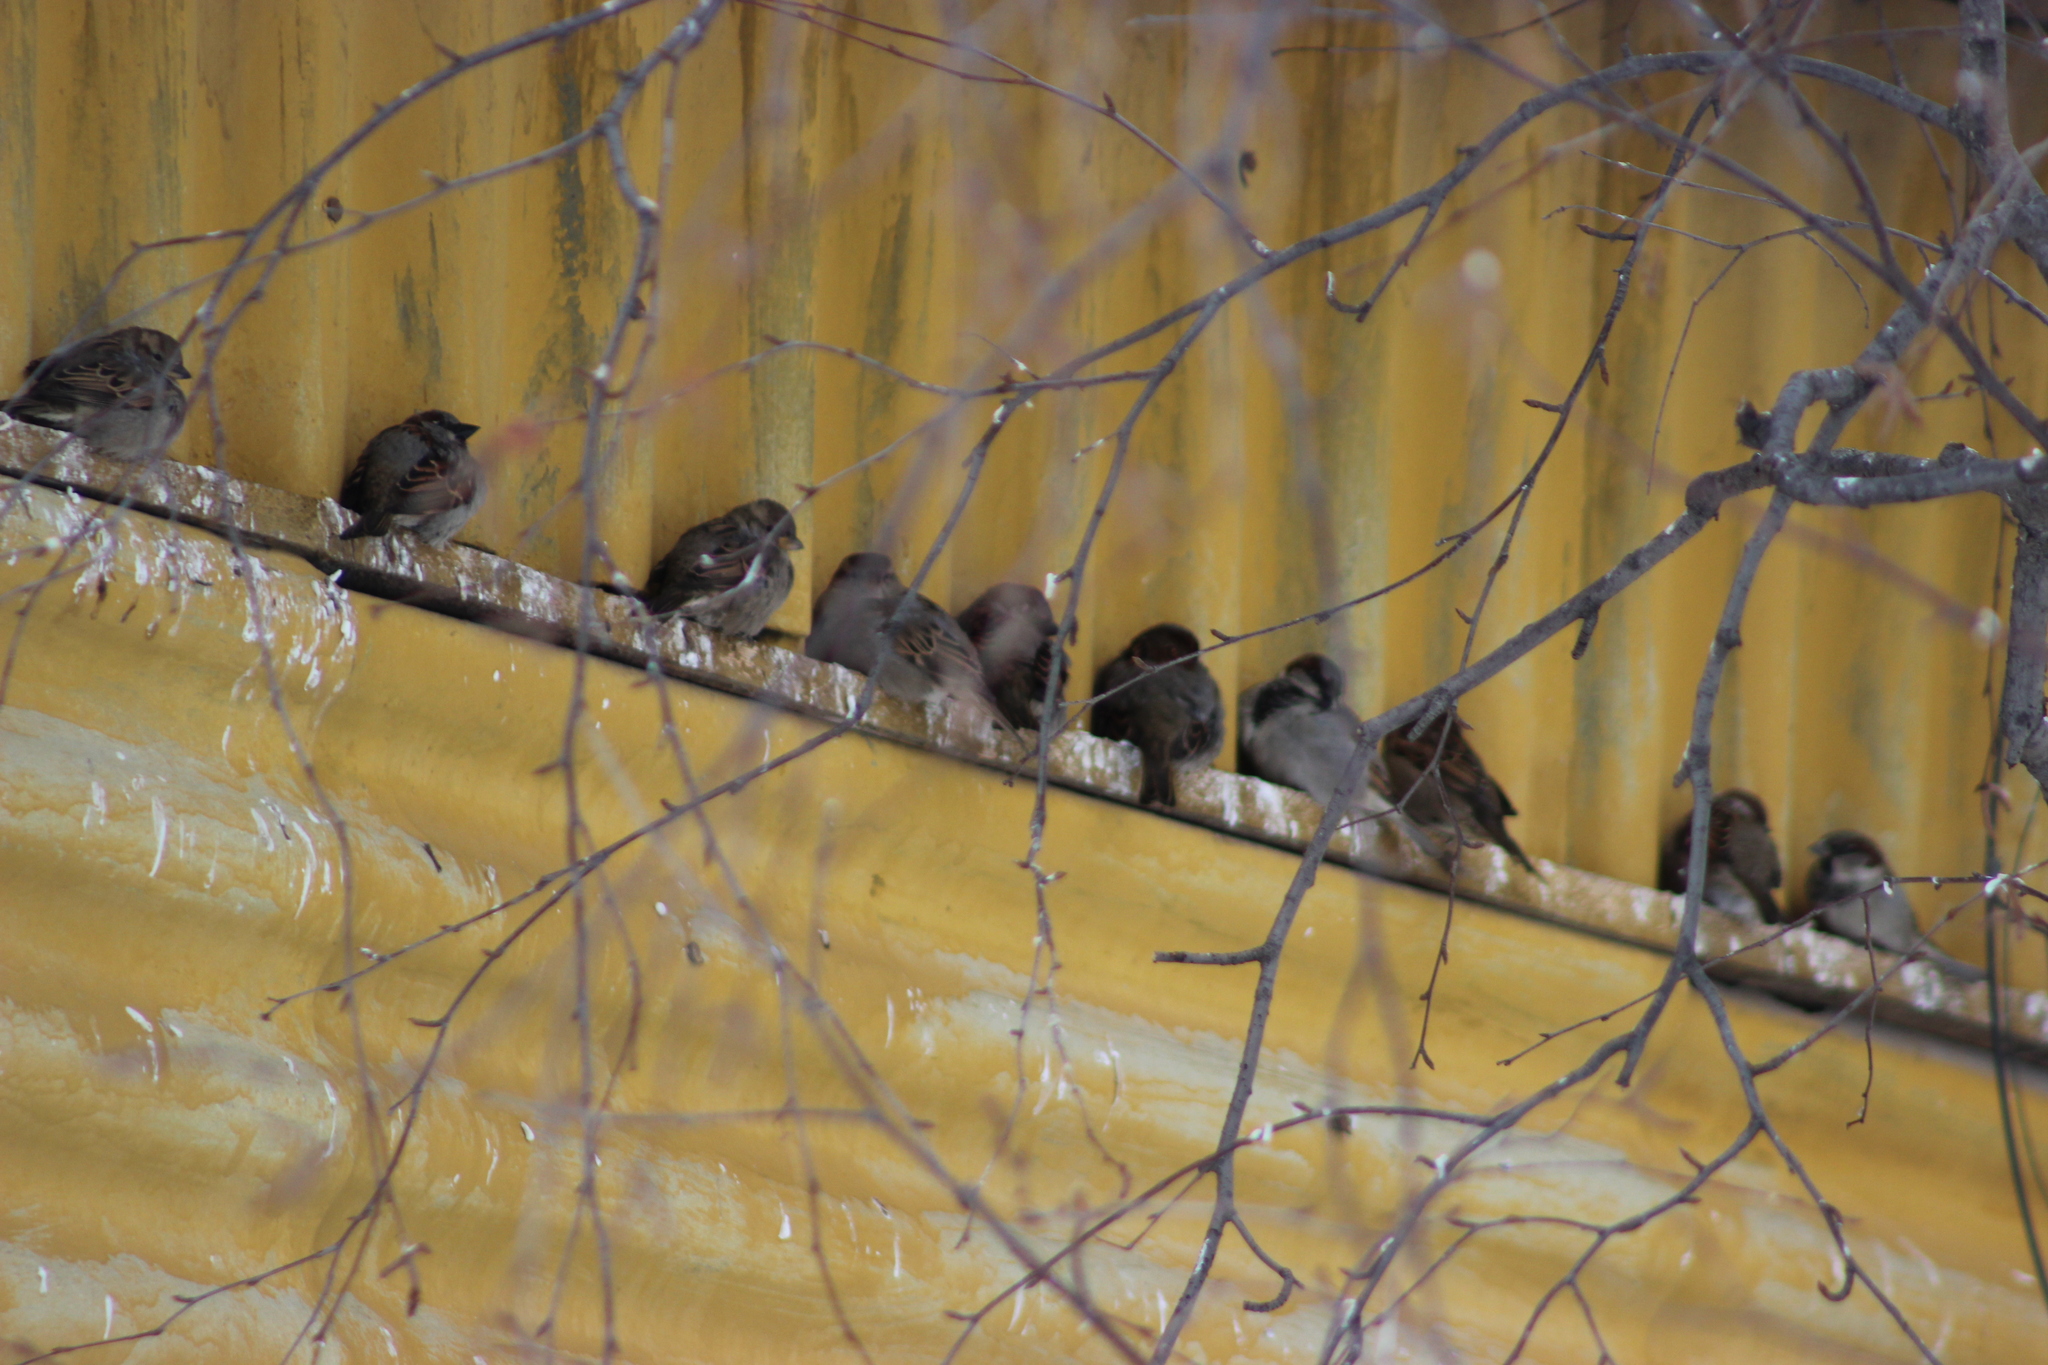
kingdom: Animalia
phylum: Chordata
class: Aves
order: Passeriformes
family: Passeridae
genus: Passer
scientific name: Passer montanus
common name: Eurasian tree sparrow
